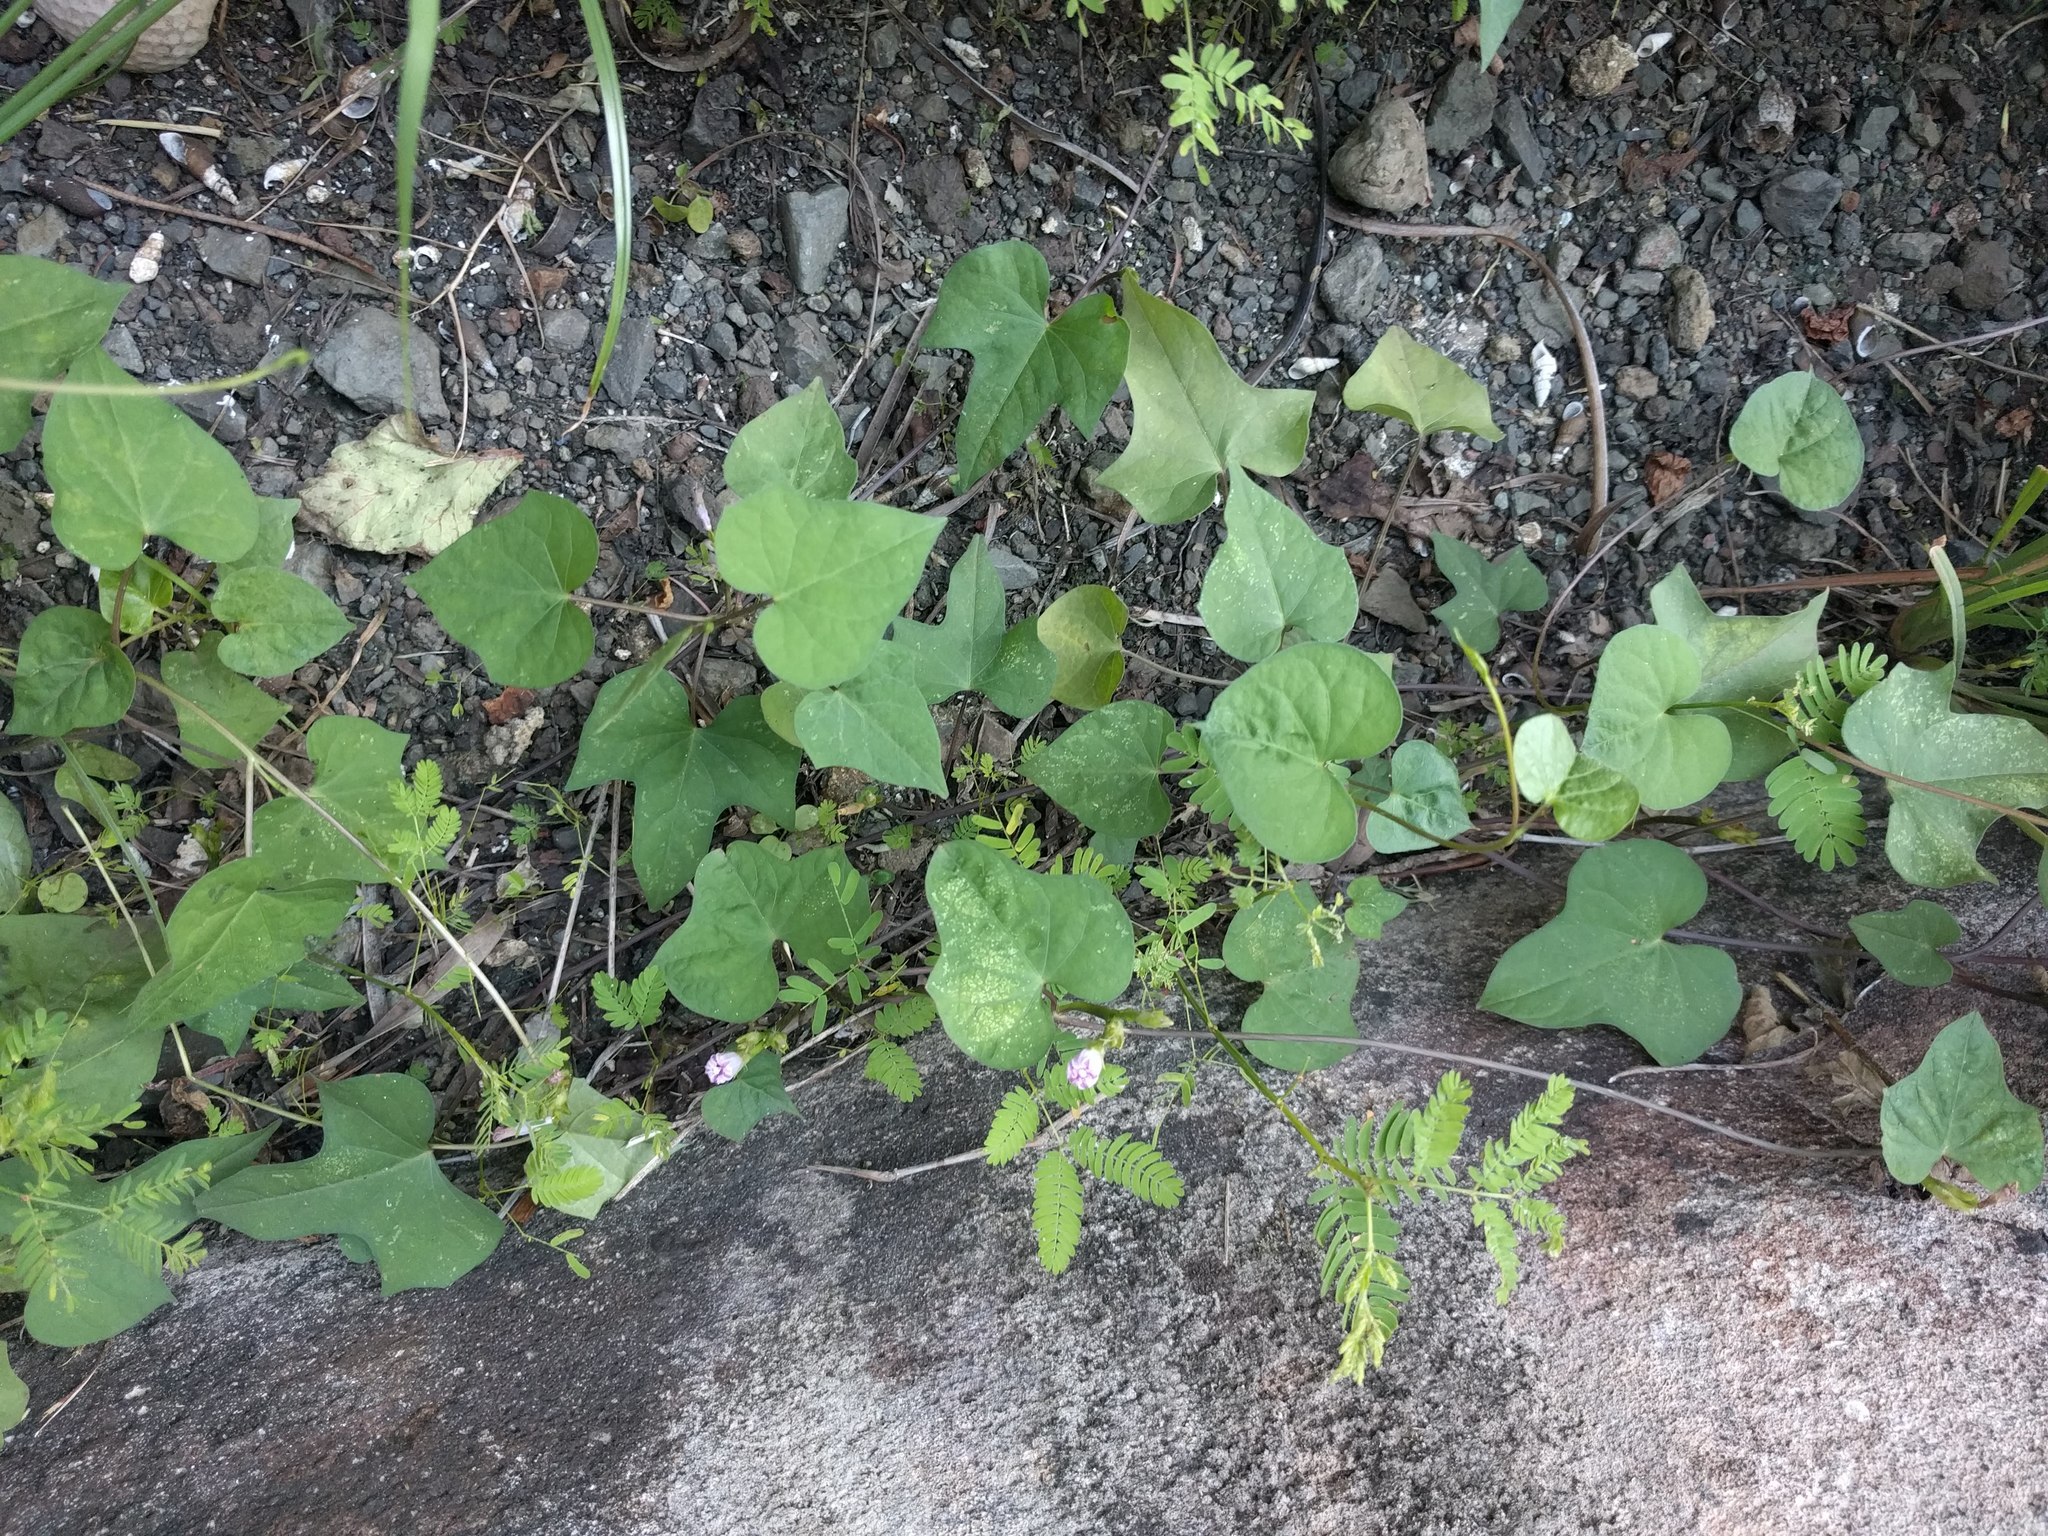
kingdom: Plantae
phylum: Tracheophyta
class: Magnoliopsida
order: Solanales
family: Convolvulaceae
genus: Ipomoea
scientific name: Ipomoea triloba
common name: Little-bell
